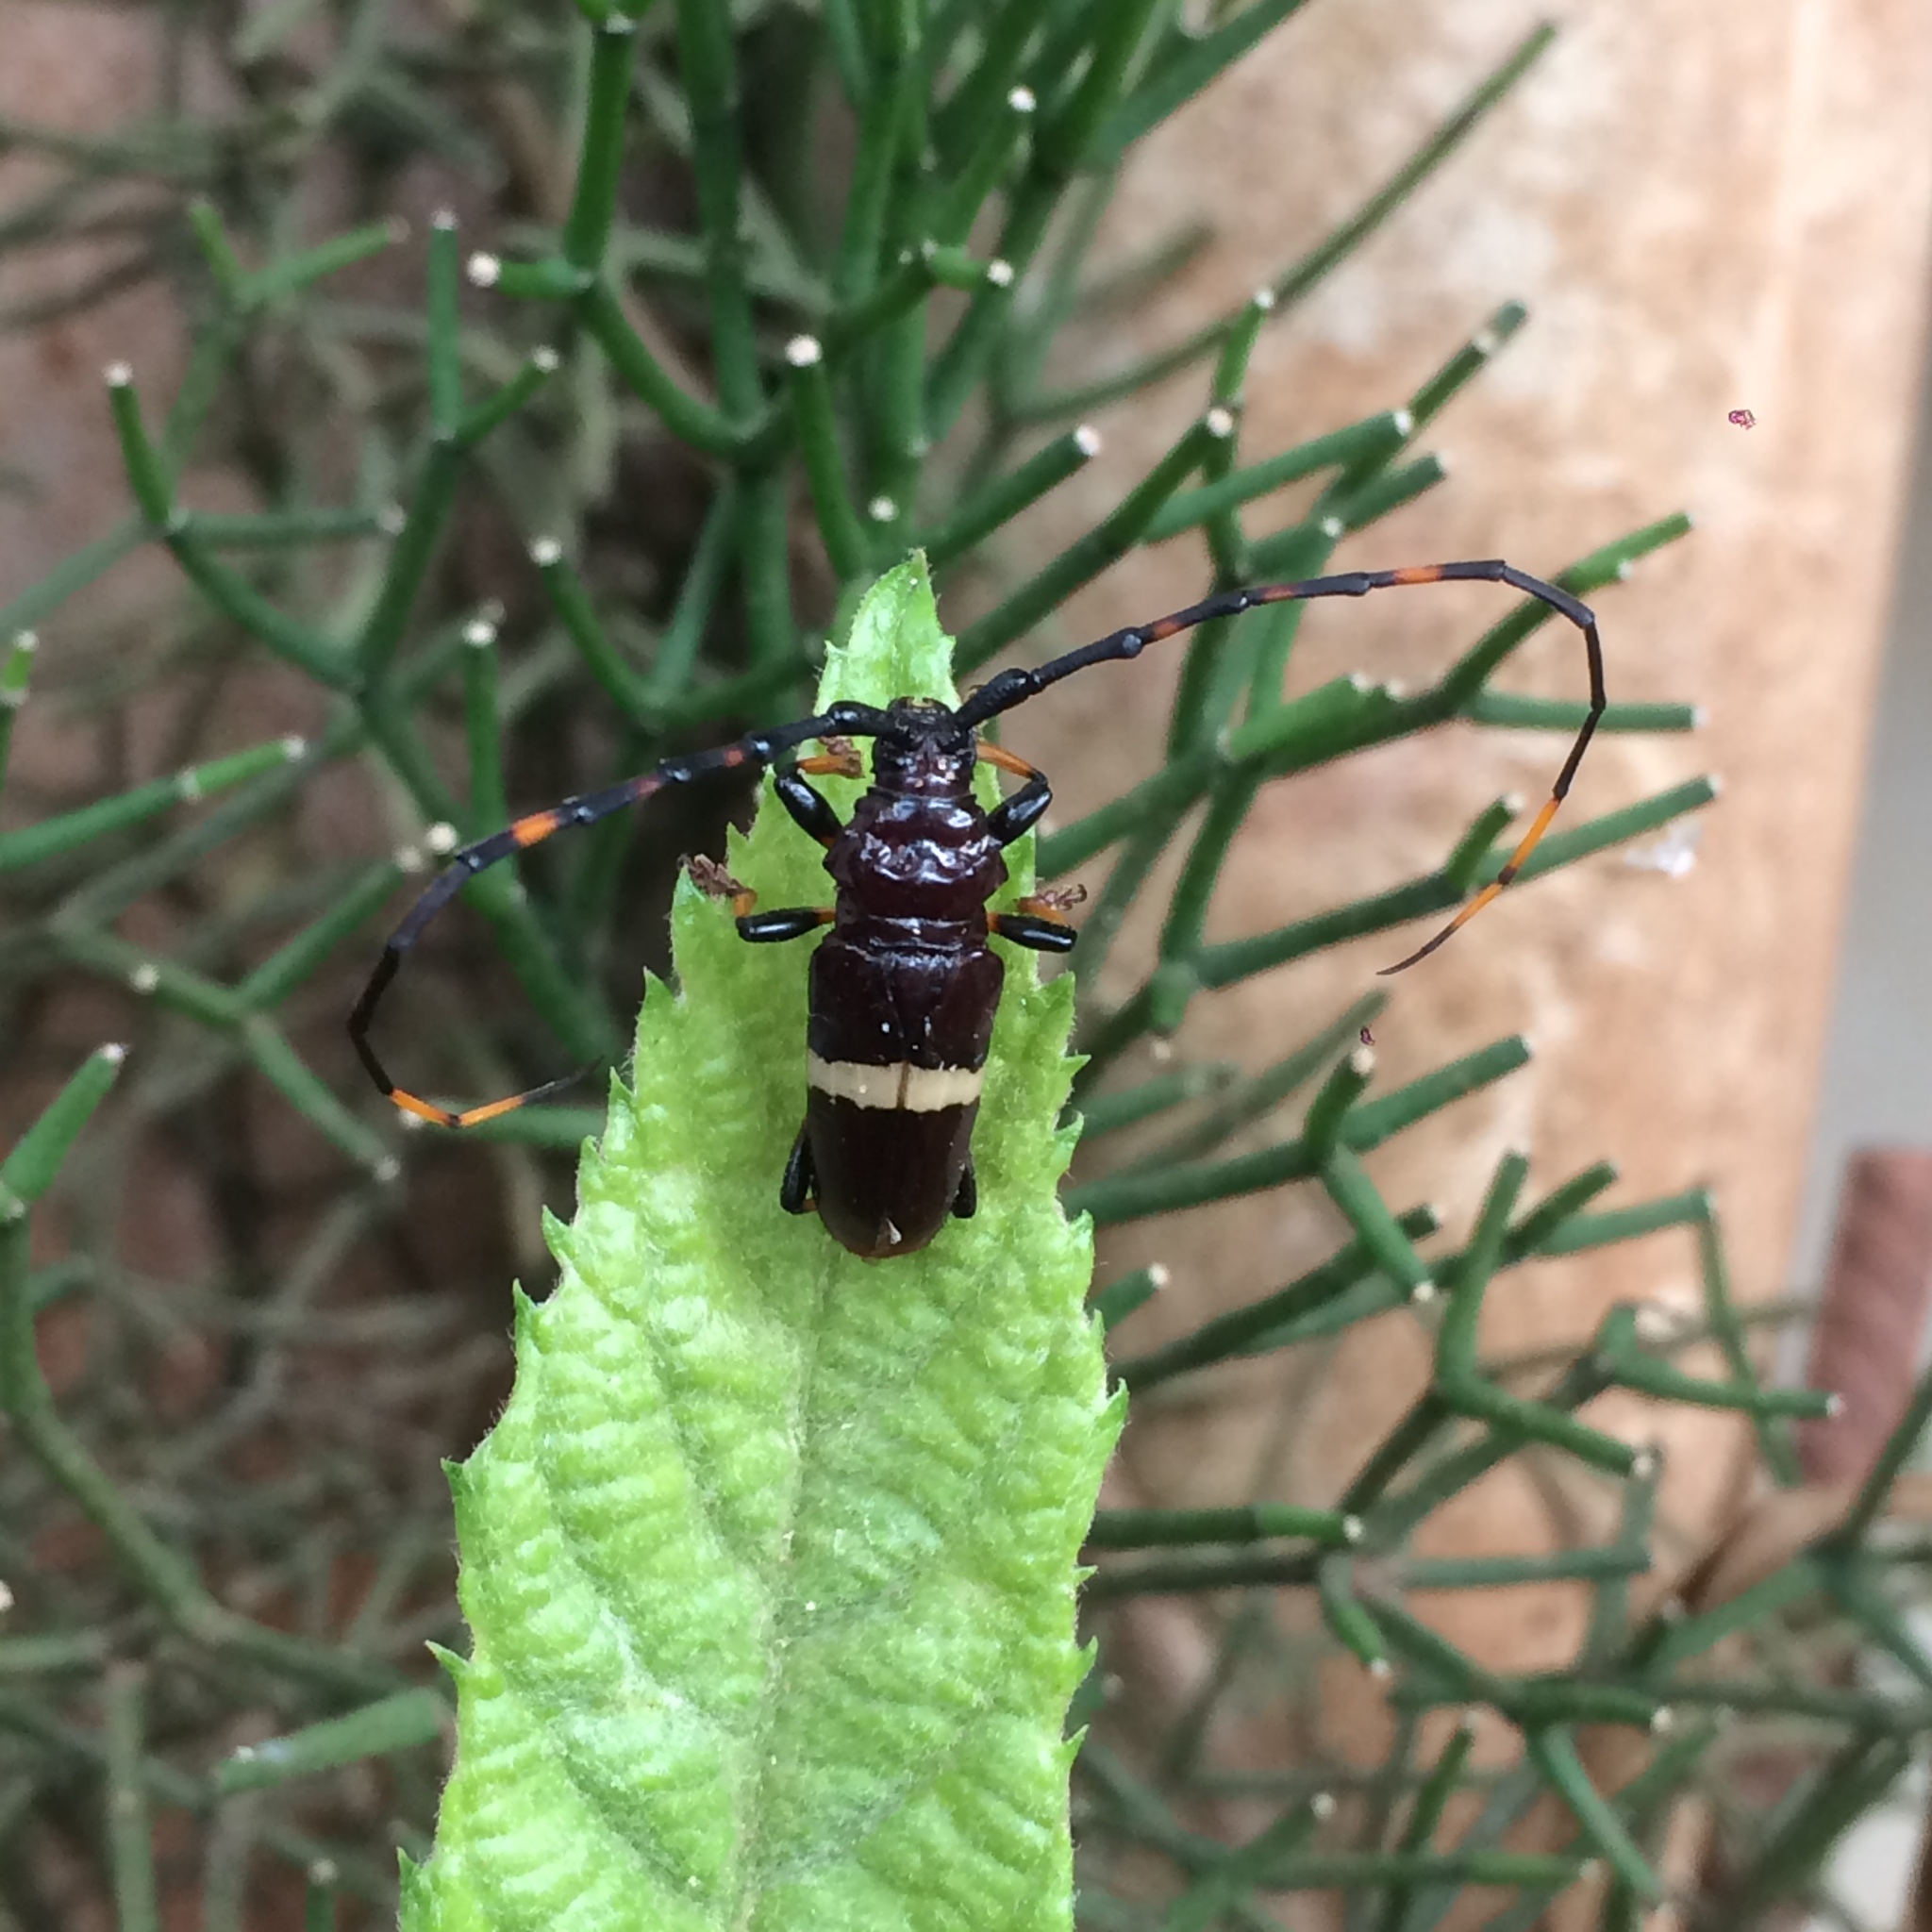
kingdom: Animalia
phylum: Arthropoda
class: Insecta
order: Coleoptera
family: Cerambycidae
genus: Trachyderes
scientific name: Trachyderes succinctus
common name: Mango longhorn
